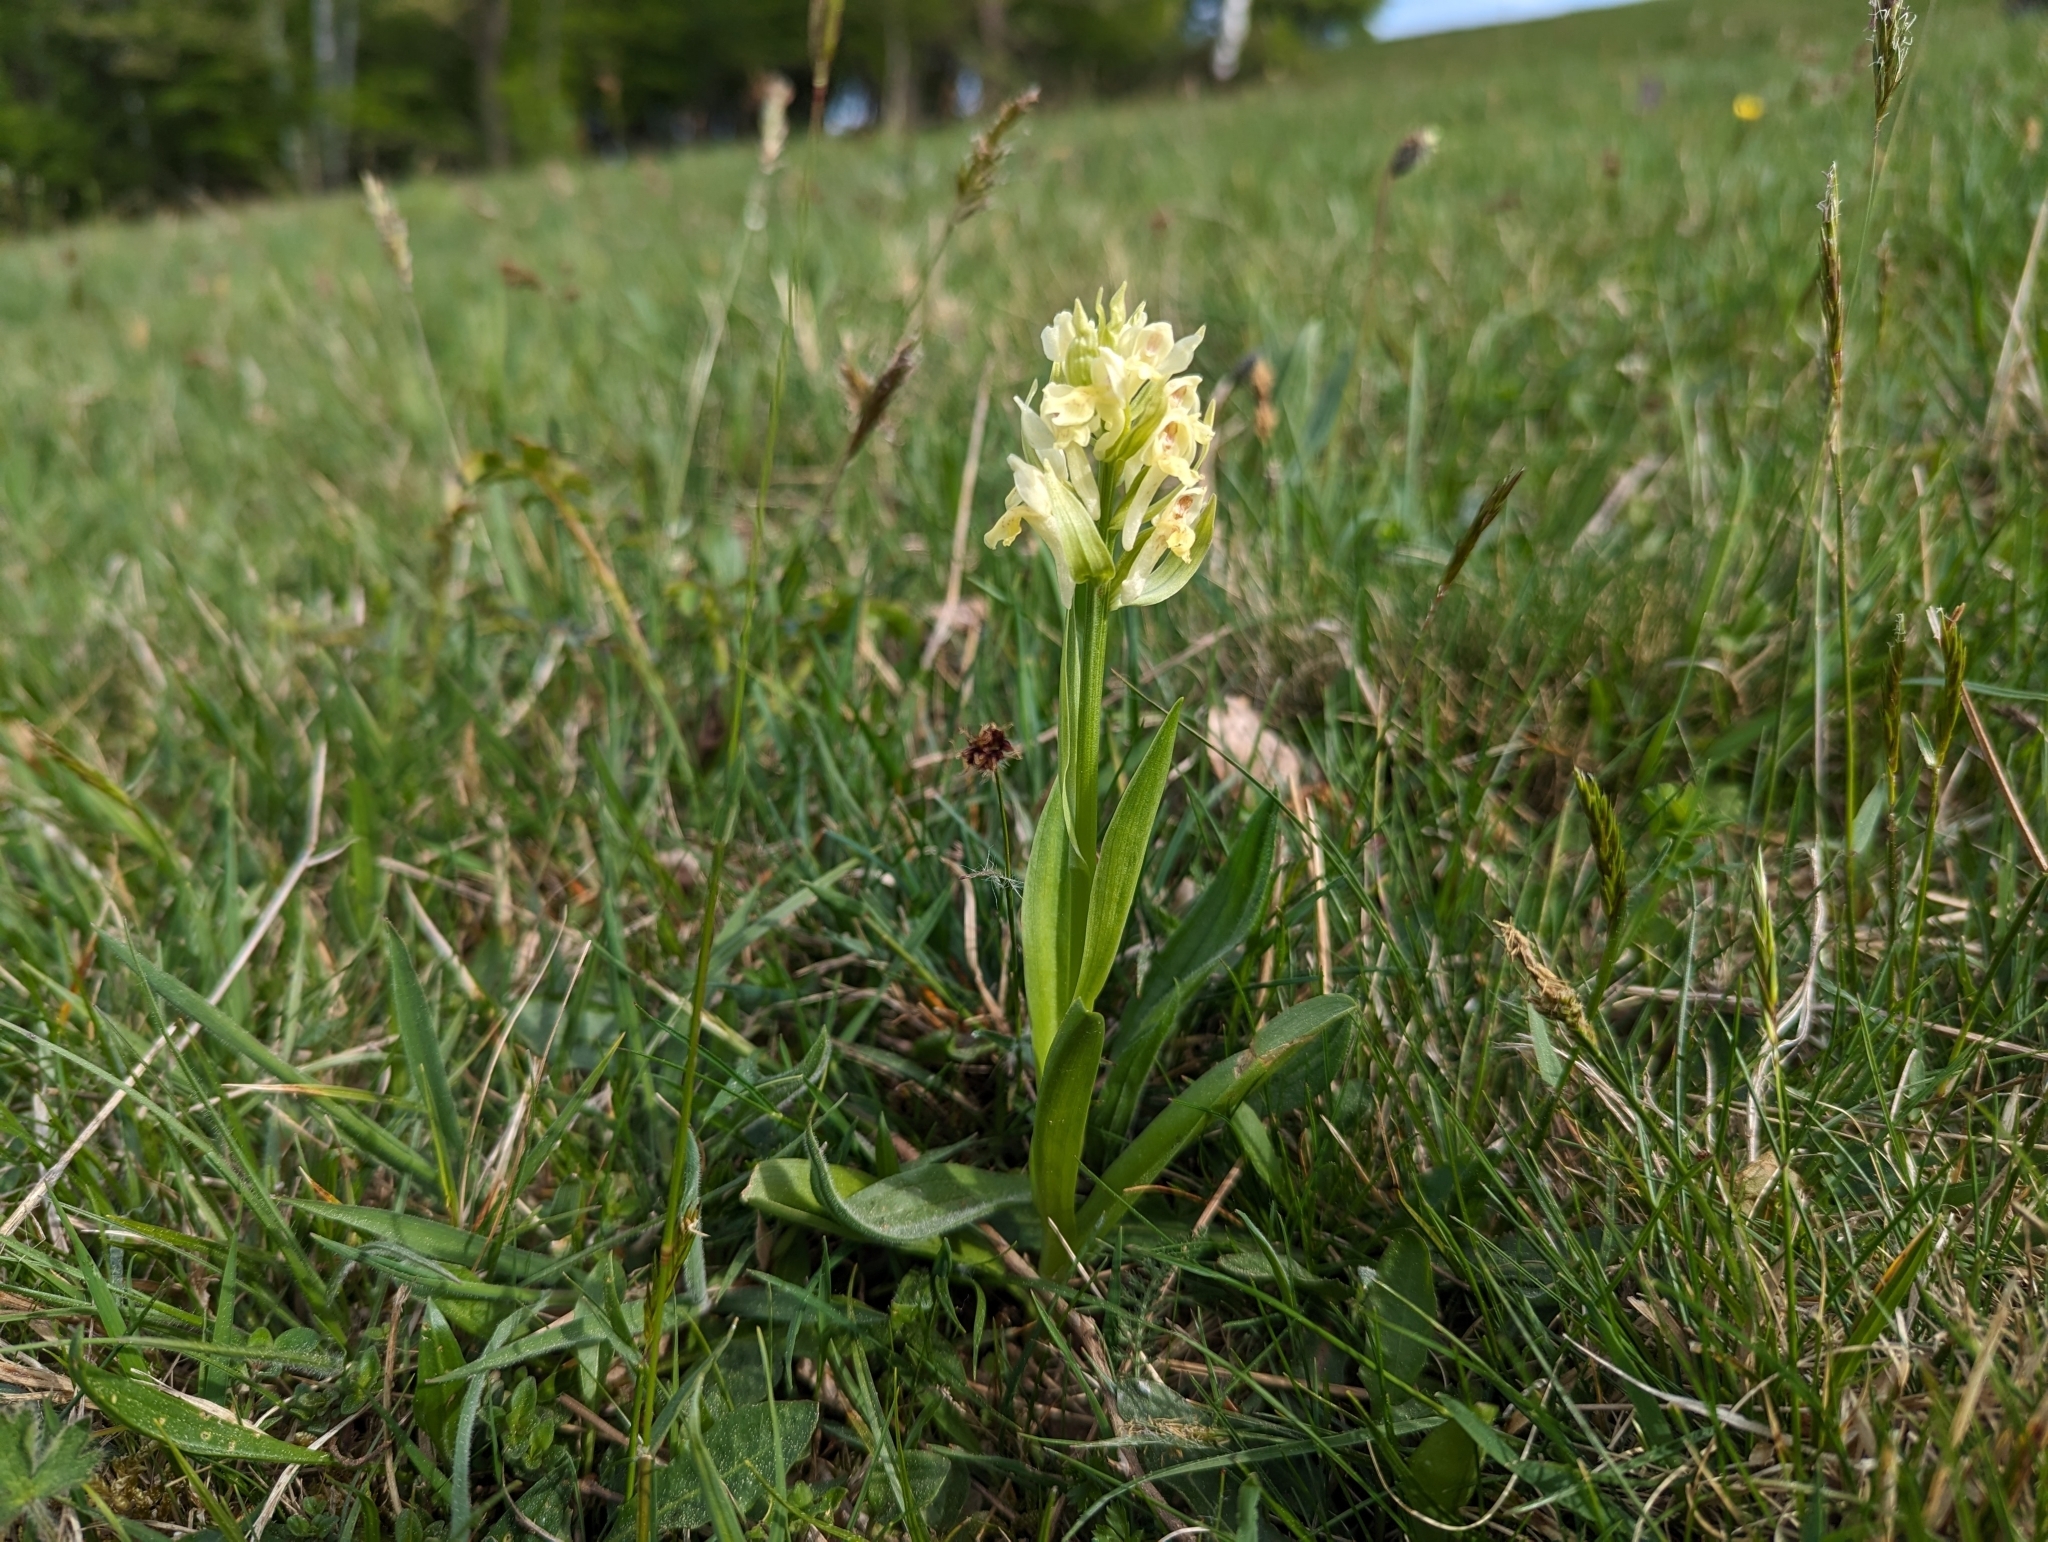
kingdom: Plantae
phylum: Tracheophyta
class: Liliopsida
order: Asparagales
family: Orchidaceae
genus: Dactylorhiza
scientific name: Dactylorhiza sambucina
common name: Elder-flowered orchid
